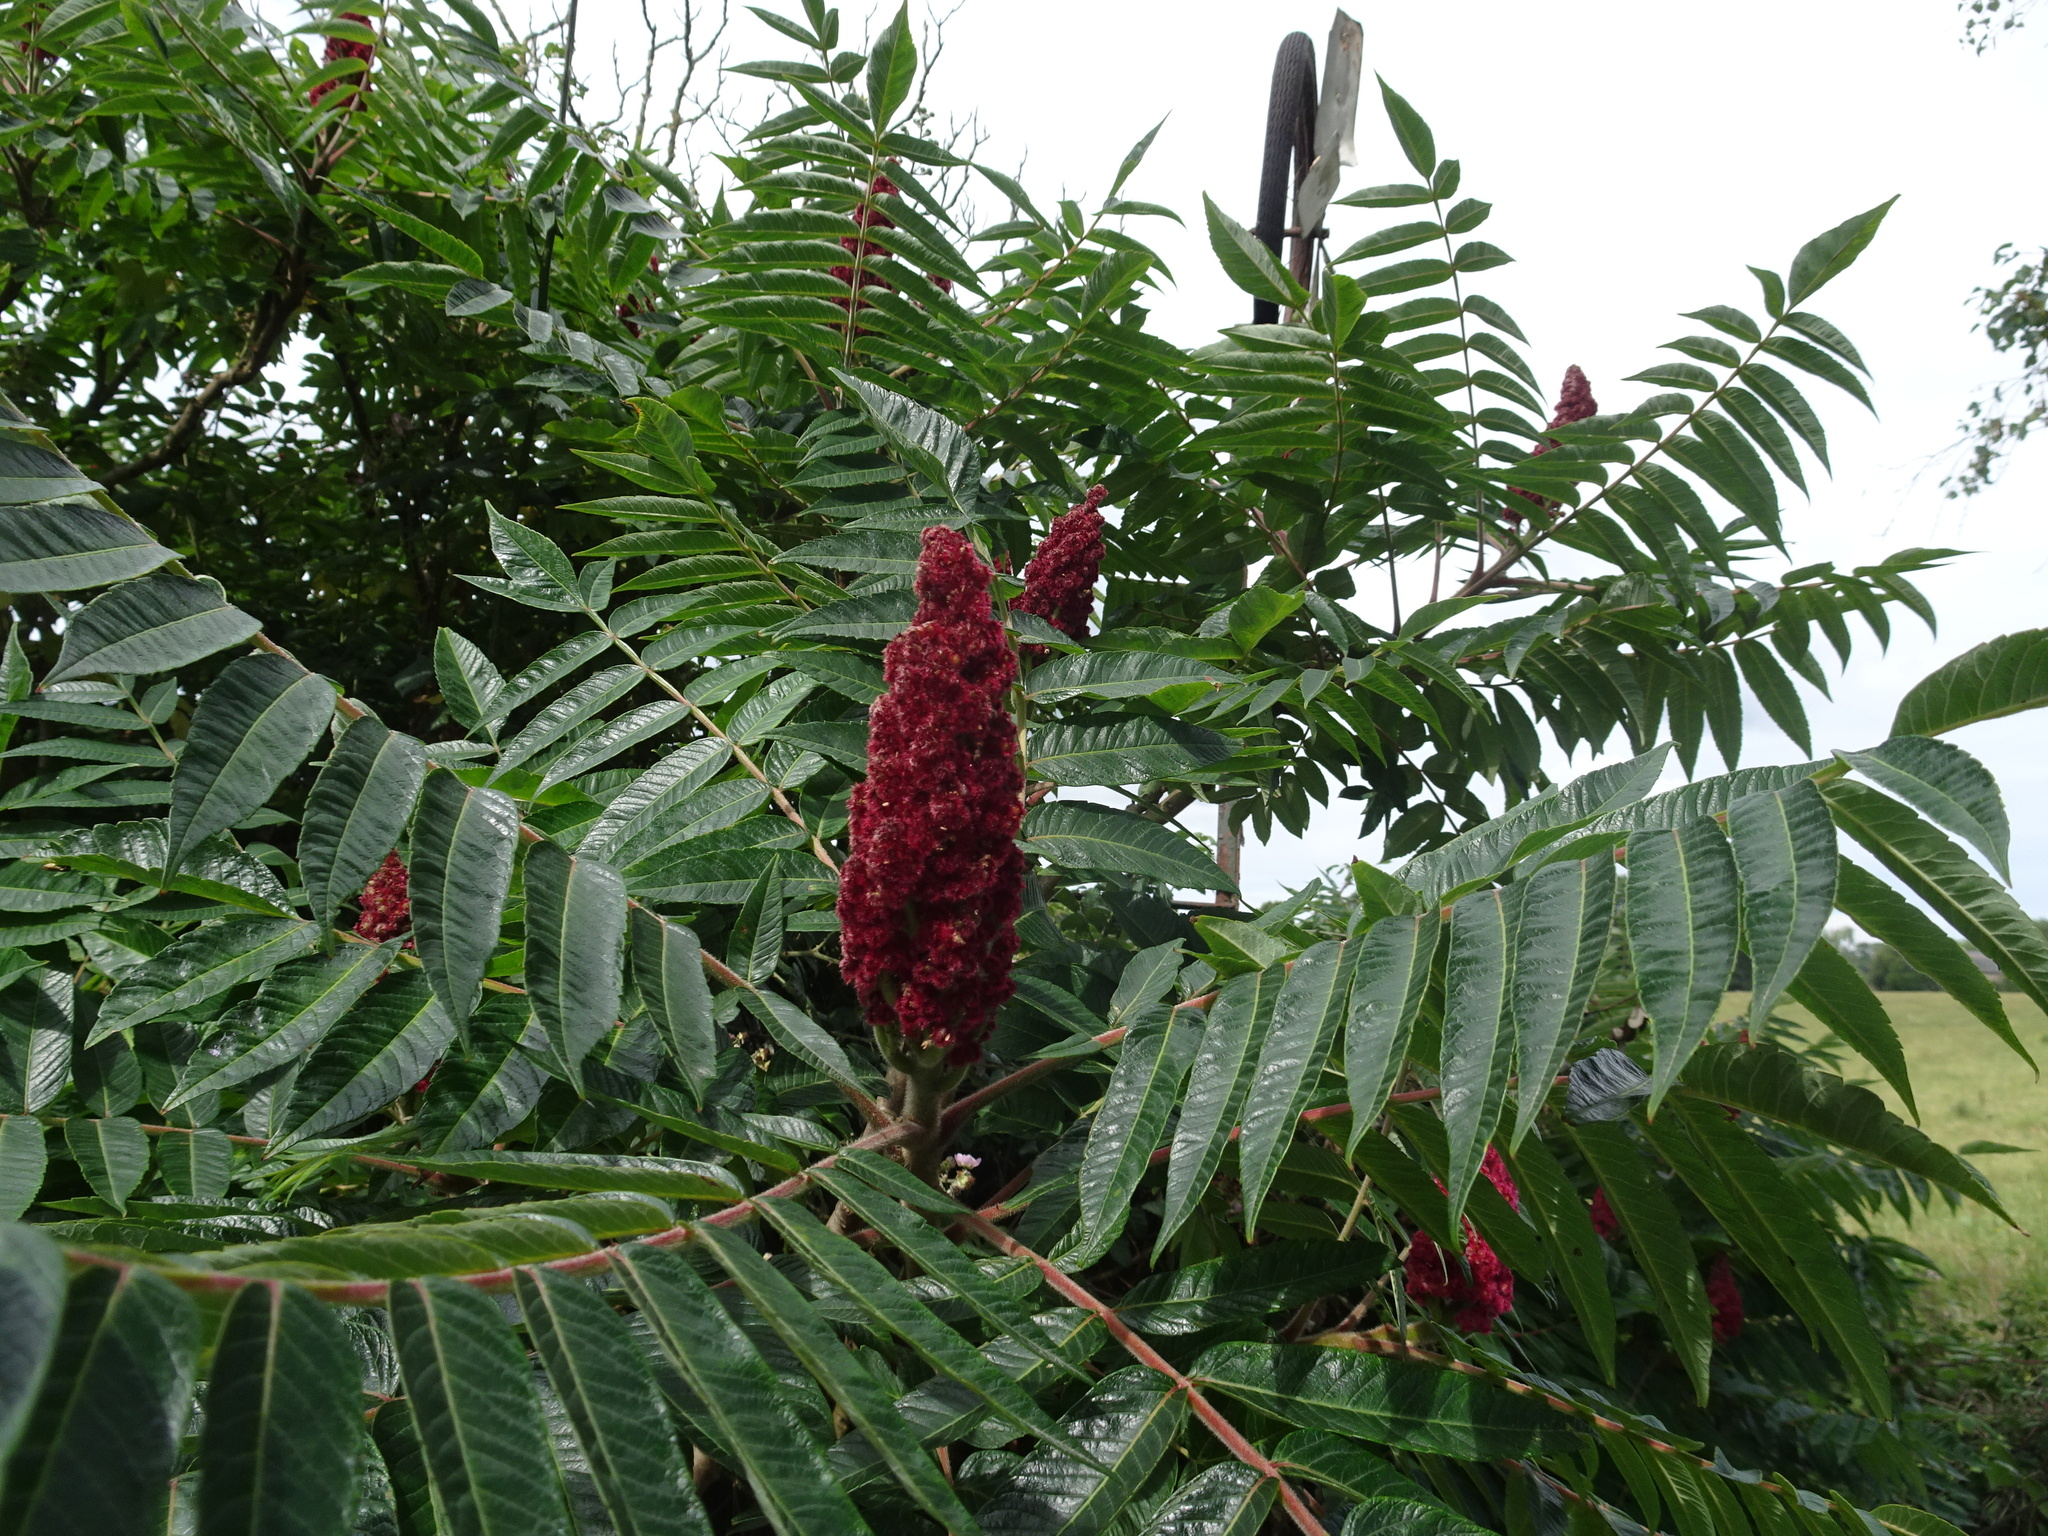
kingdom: Plantae
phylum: Tracheophyta
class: Magnoliopsida
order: Sapindales
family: Anacardiaceae
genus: Rhus
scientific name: Rhus typhina
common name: Staghorn sumac
